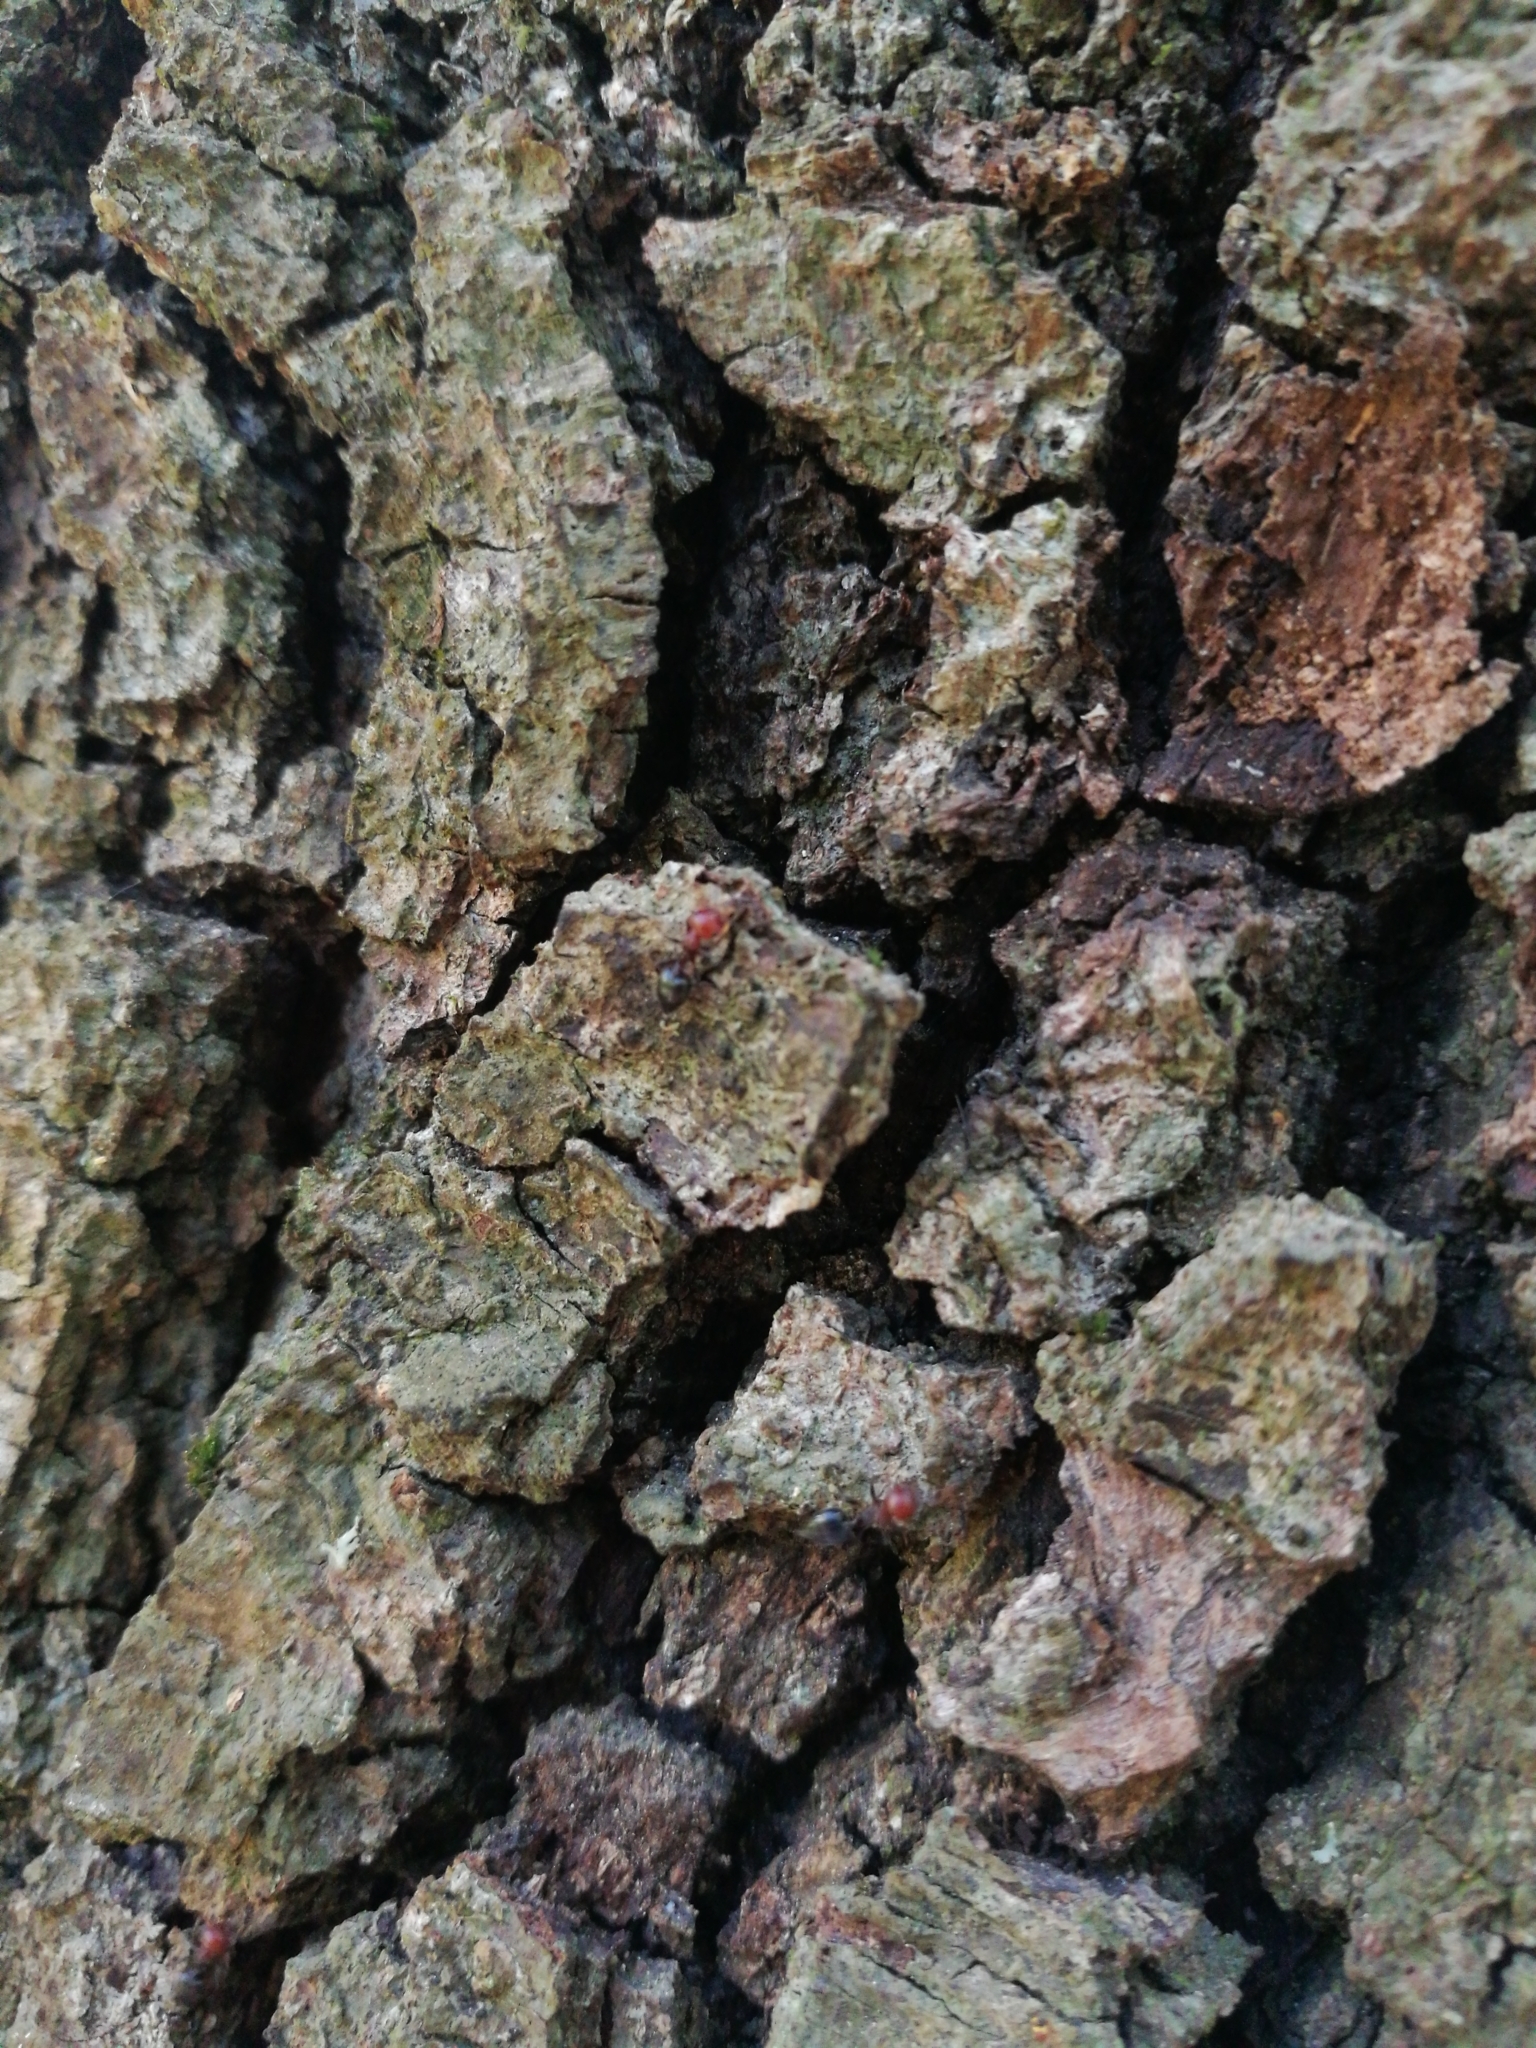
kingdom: Animalia
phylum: Arthropoda
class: Insecta
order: Hymenoptera
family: Formicidae
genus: Crematogaster
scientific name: Crematogaster scutellaris
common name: Fourmi du liège
